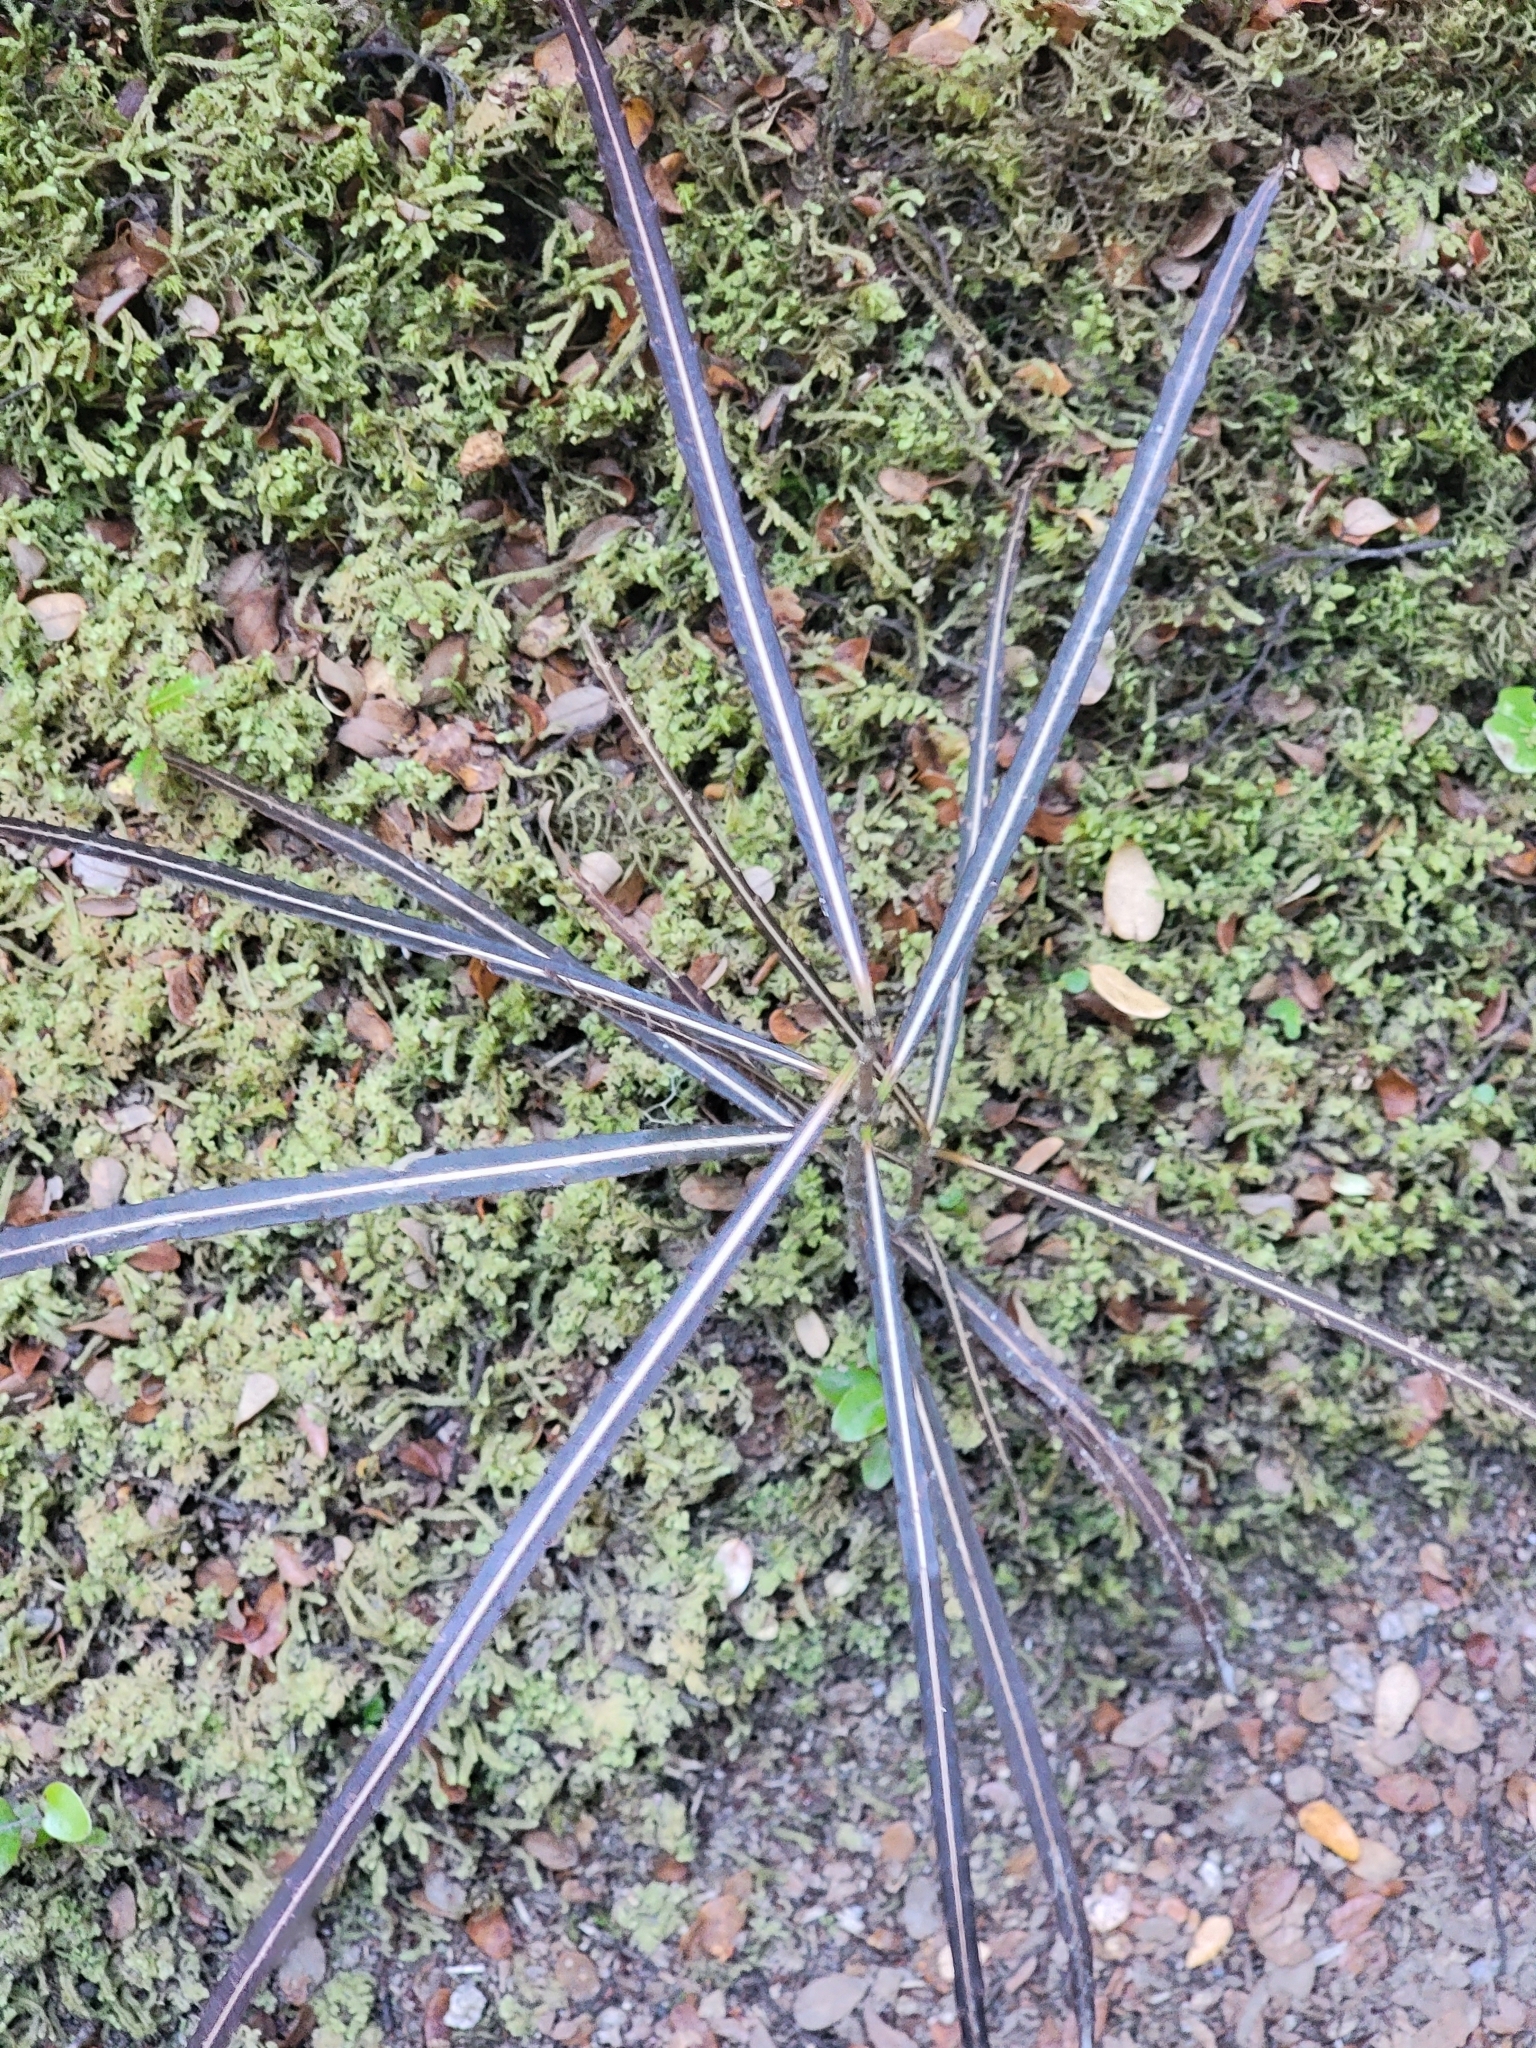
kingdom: Plantae
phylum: Tracheophyta
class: Magnoliopsida
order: Apiales
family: Araliaceae
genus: Pseudopanax
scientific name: Pseudopanax crassifolius
